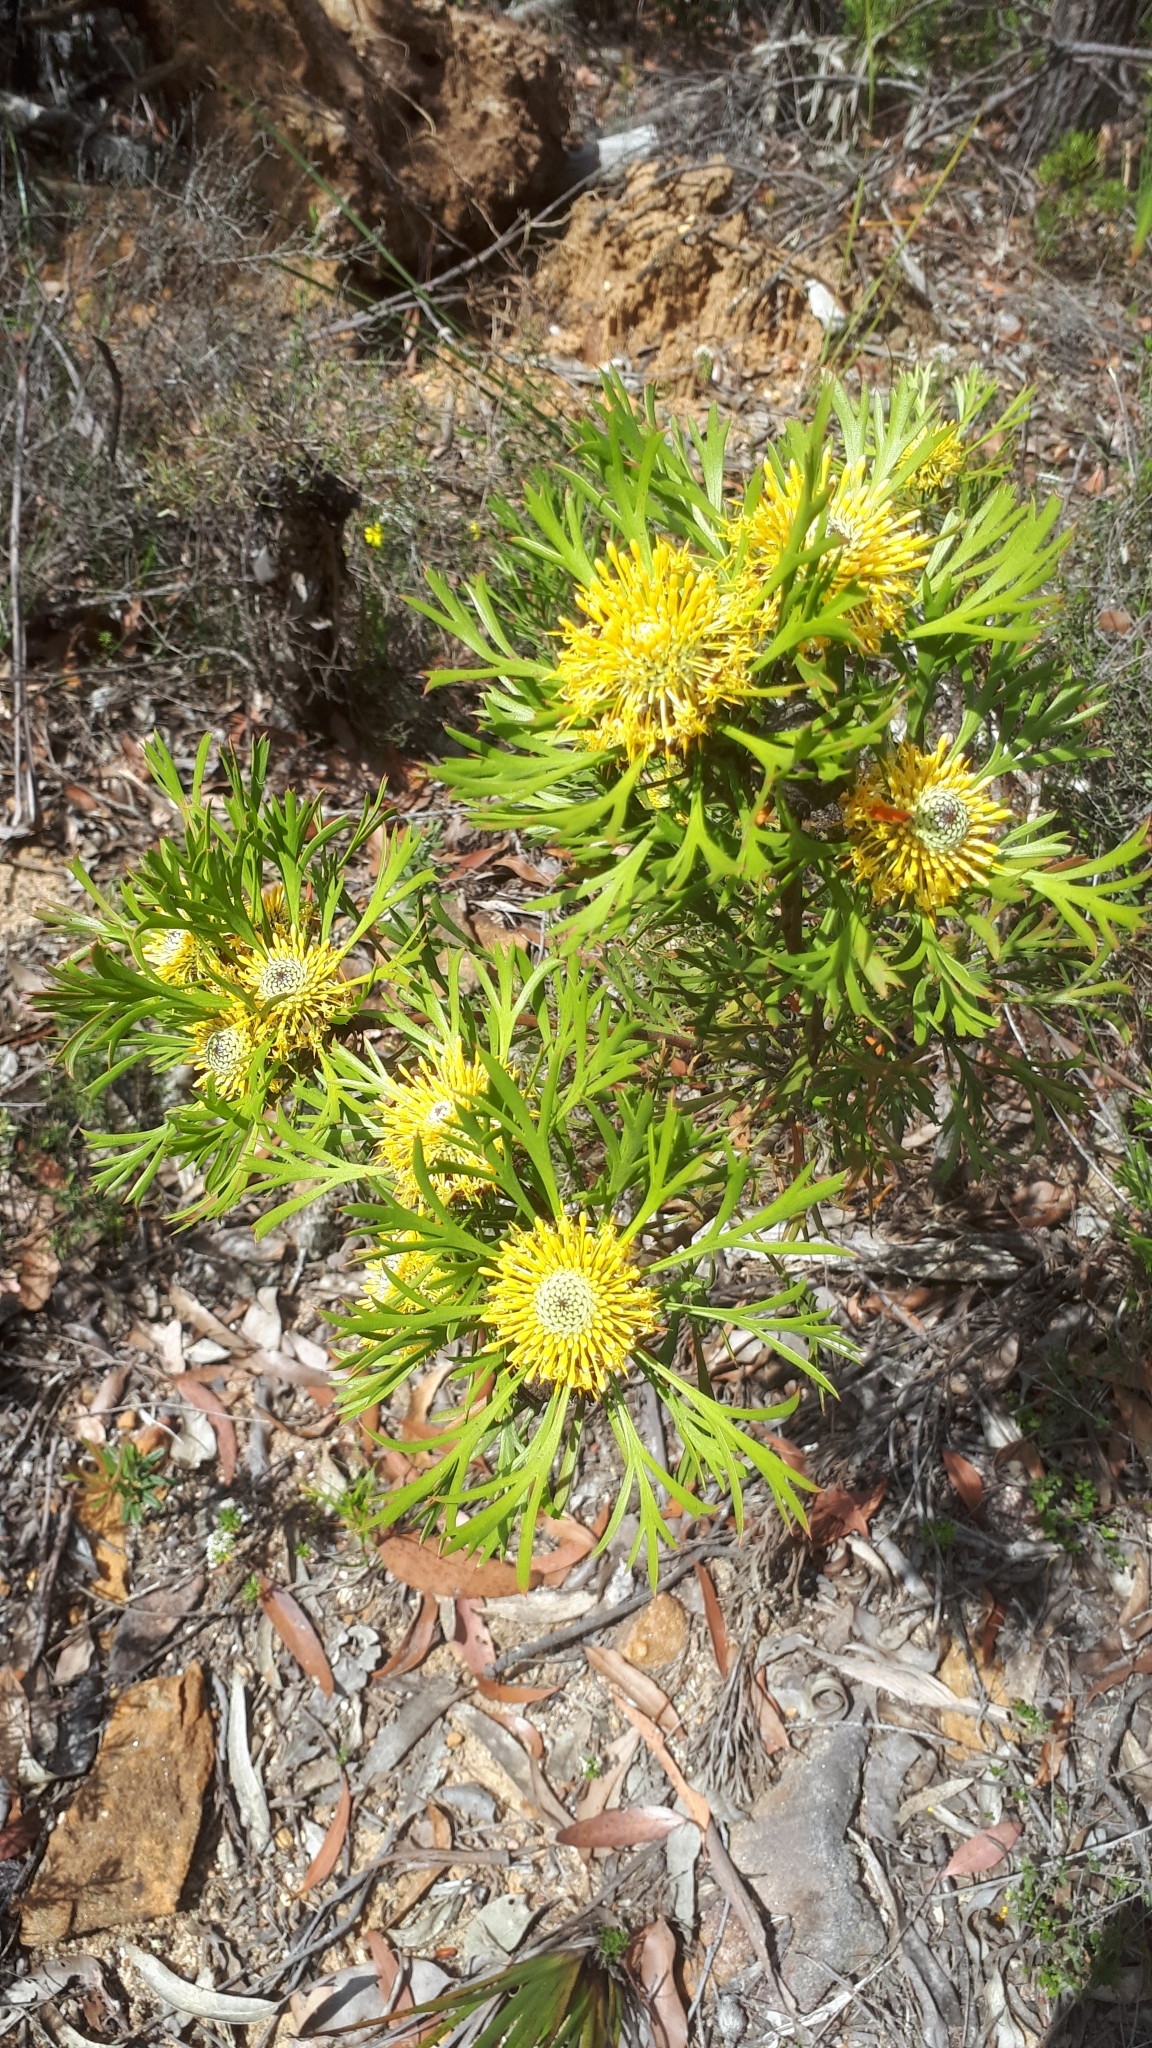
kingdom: Plantae
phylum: Tracheophyta
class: Magnoliopsida
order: Proteales
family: Proteaceae
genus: Isopogon
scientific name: Isopogon anemonifolius
